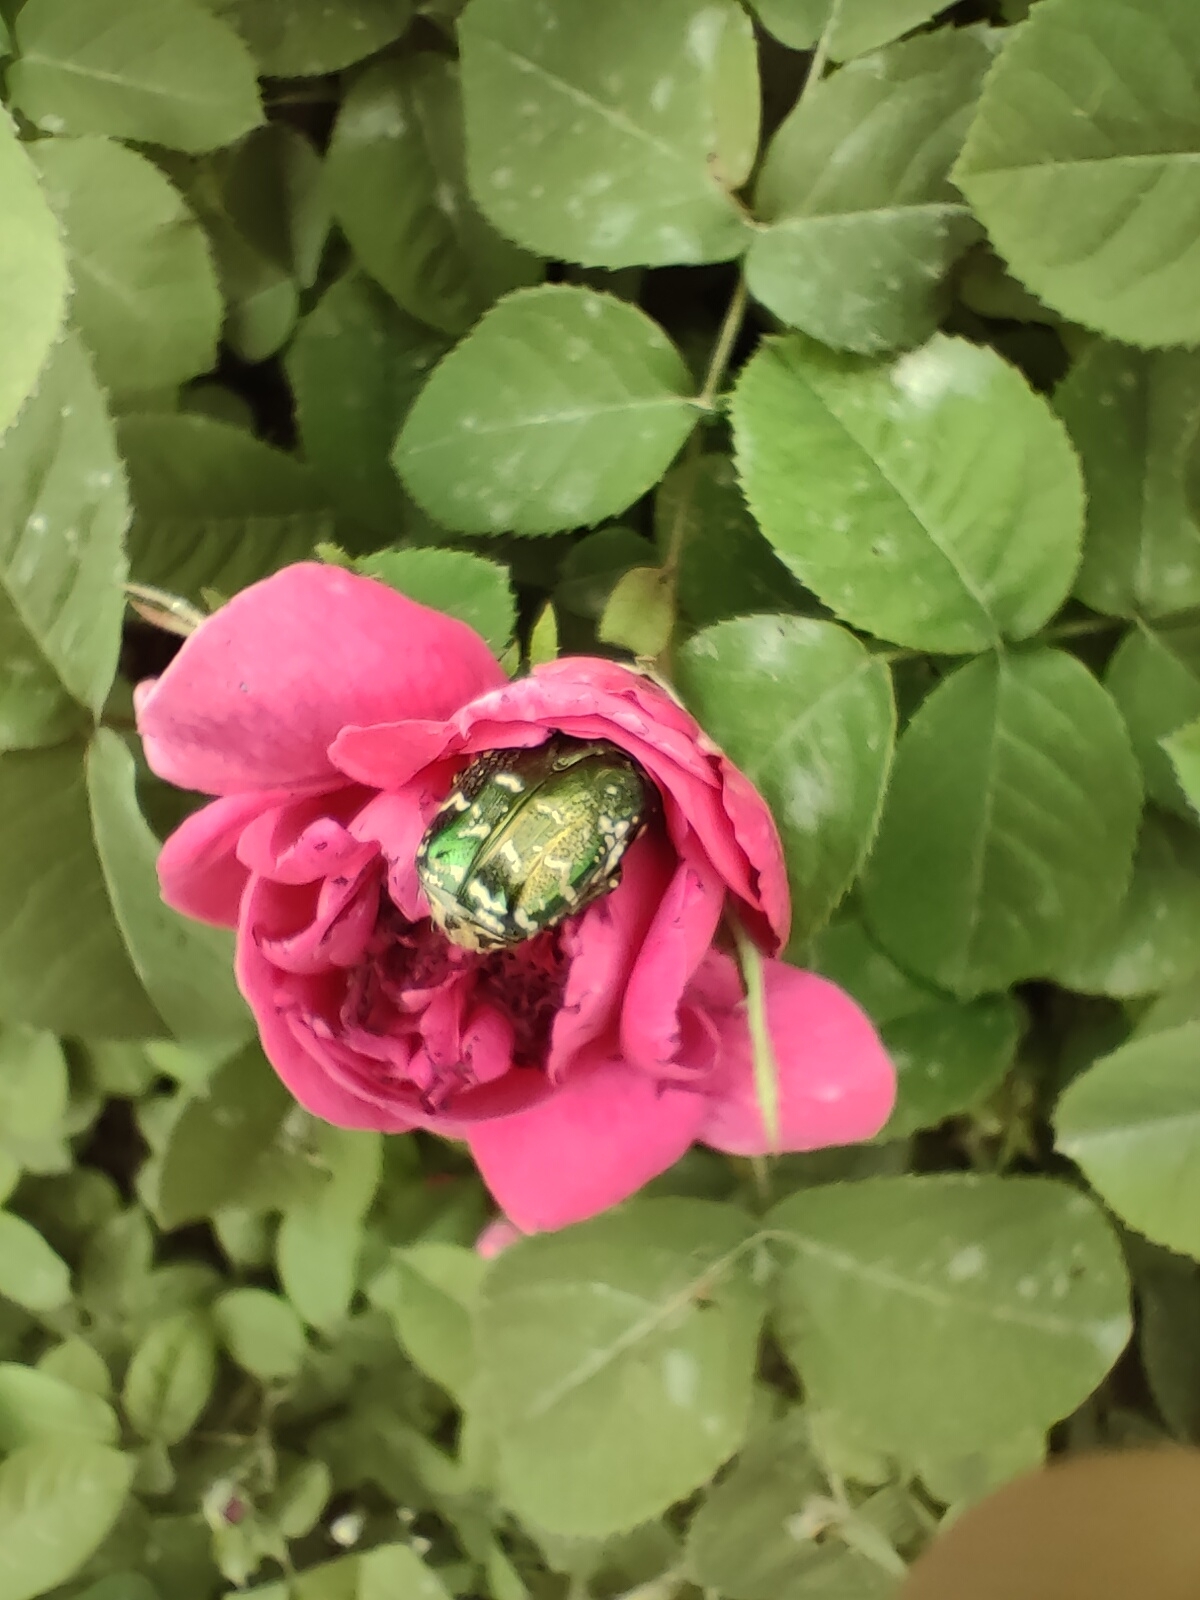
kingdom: Animalia
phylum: Arthropoda
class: Insecta
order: Coleoptera
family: Scarabaeidae
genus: Protaetia
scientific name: Protaetia marginicollis
